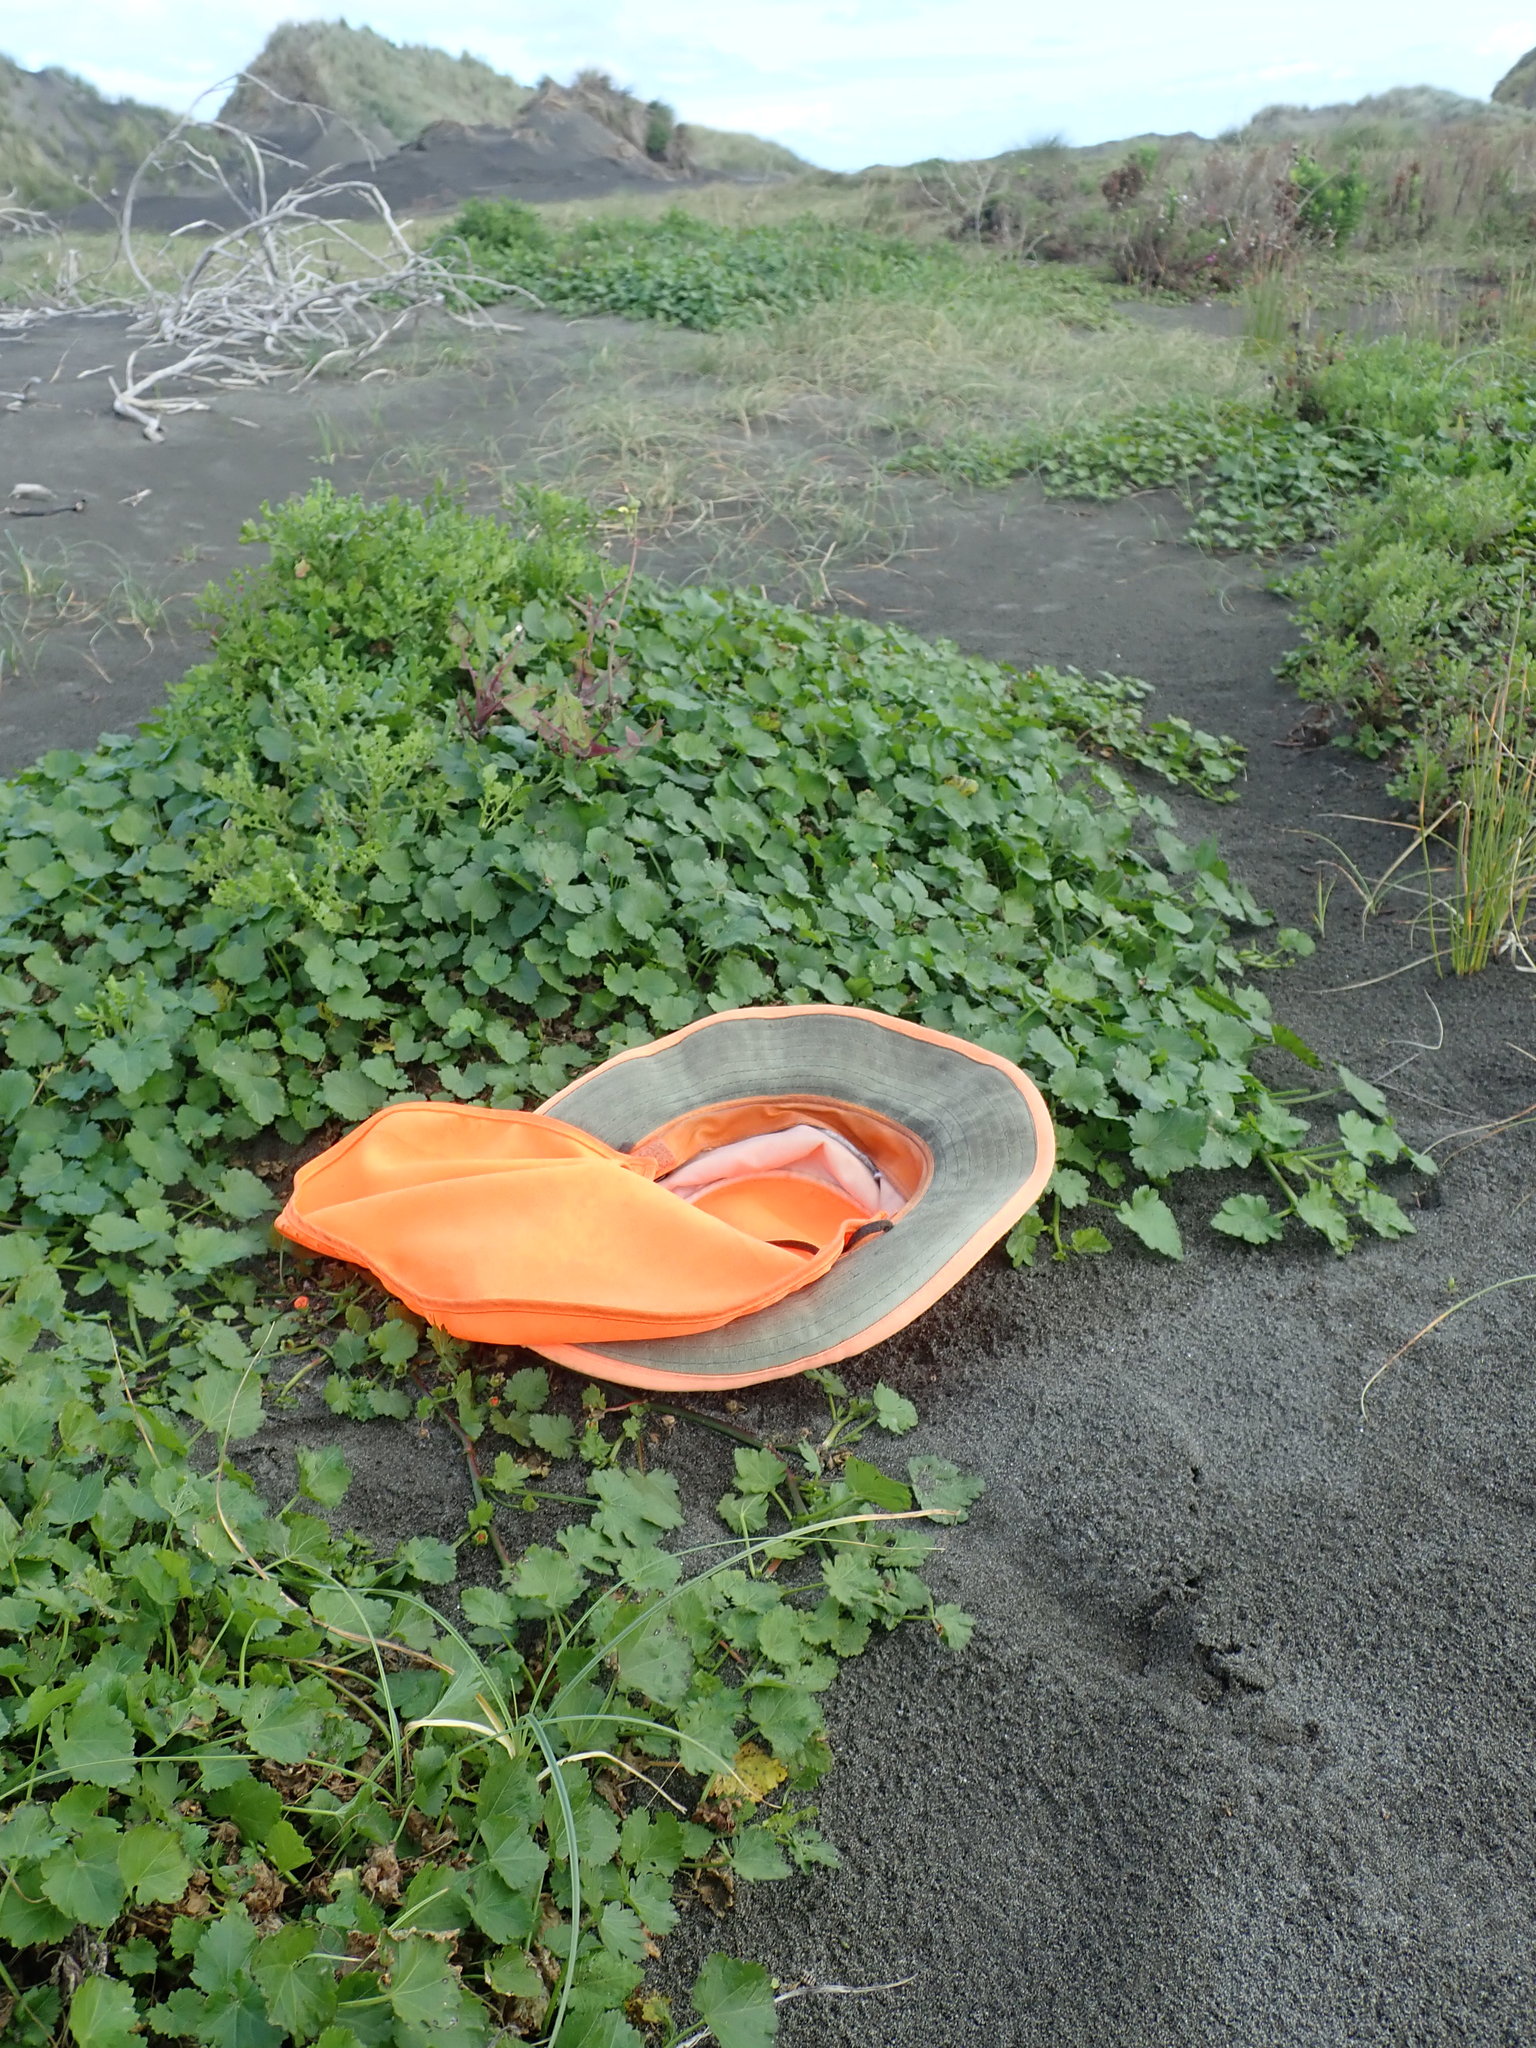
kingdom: Plantae
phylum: Tracheophyta
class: Magnoliopsida
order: Malvales
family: Malvaceae
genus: Modiola
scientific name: Modiola caroliniana
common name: Carolina bristlemallow
